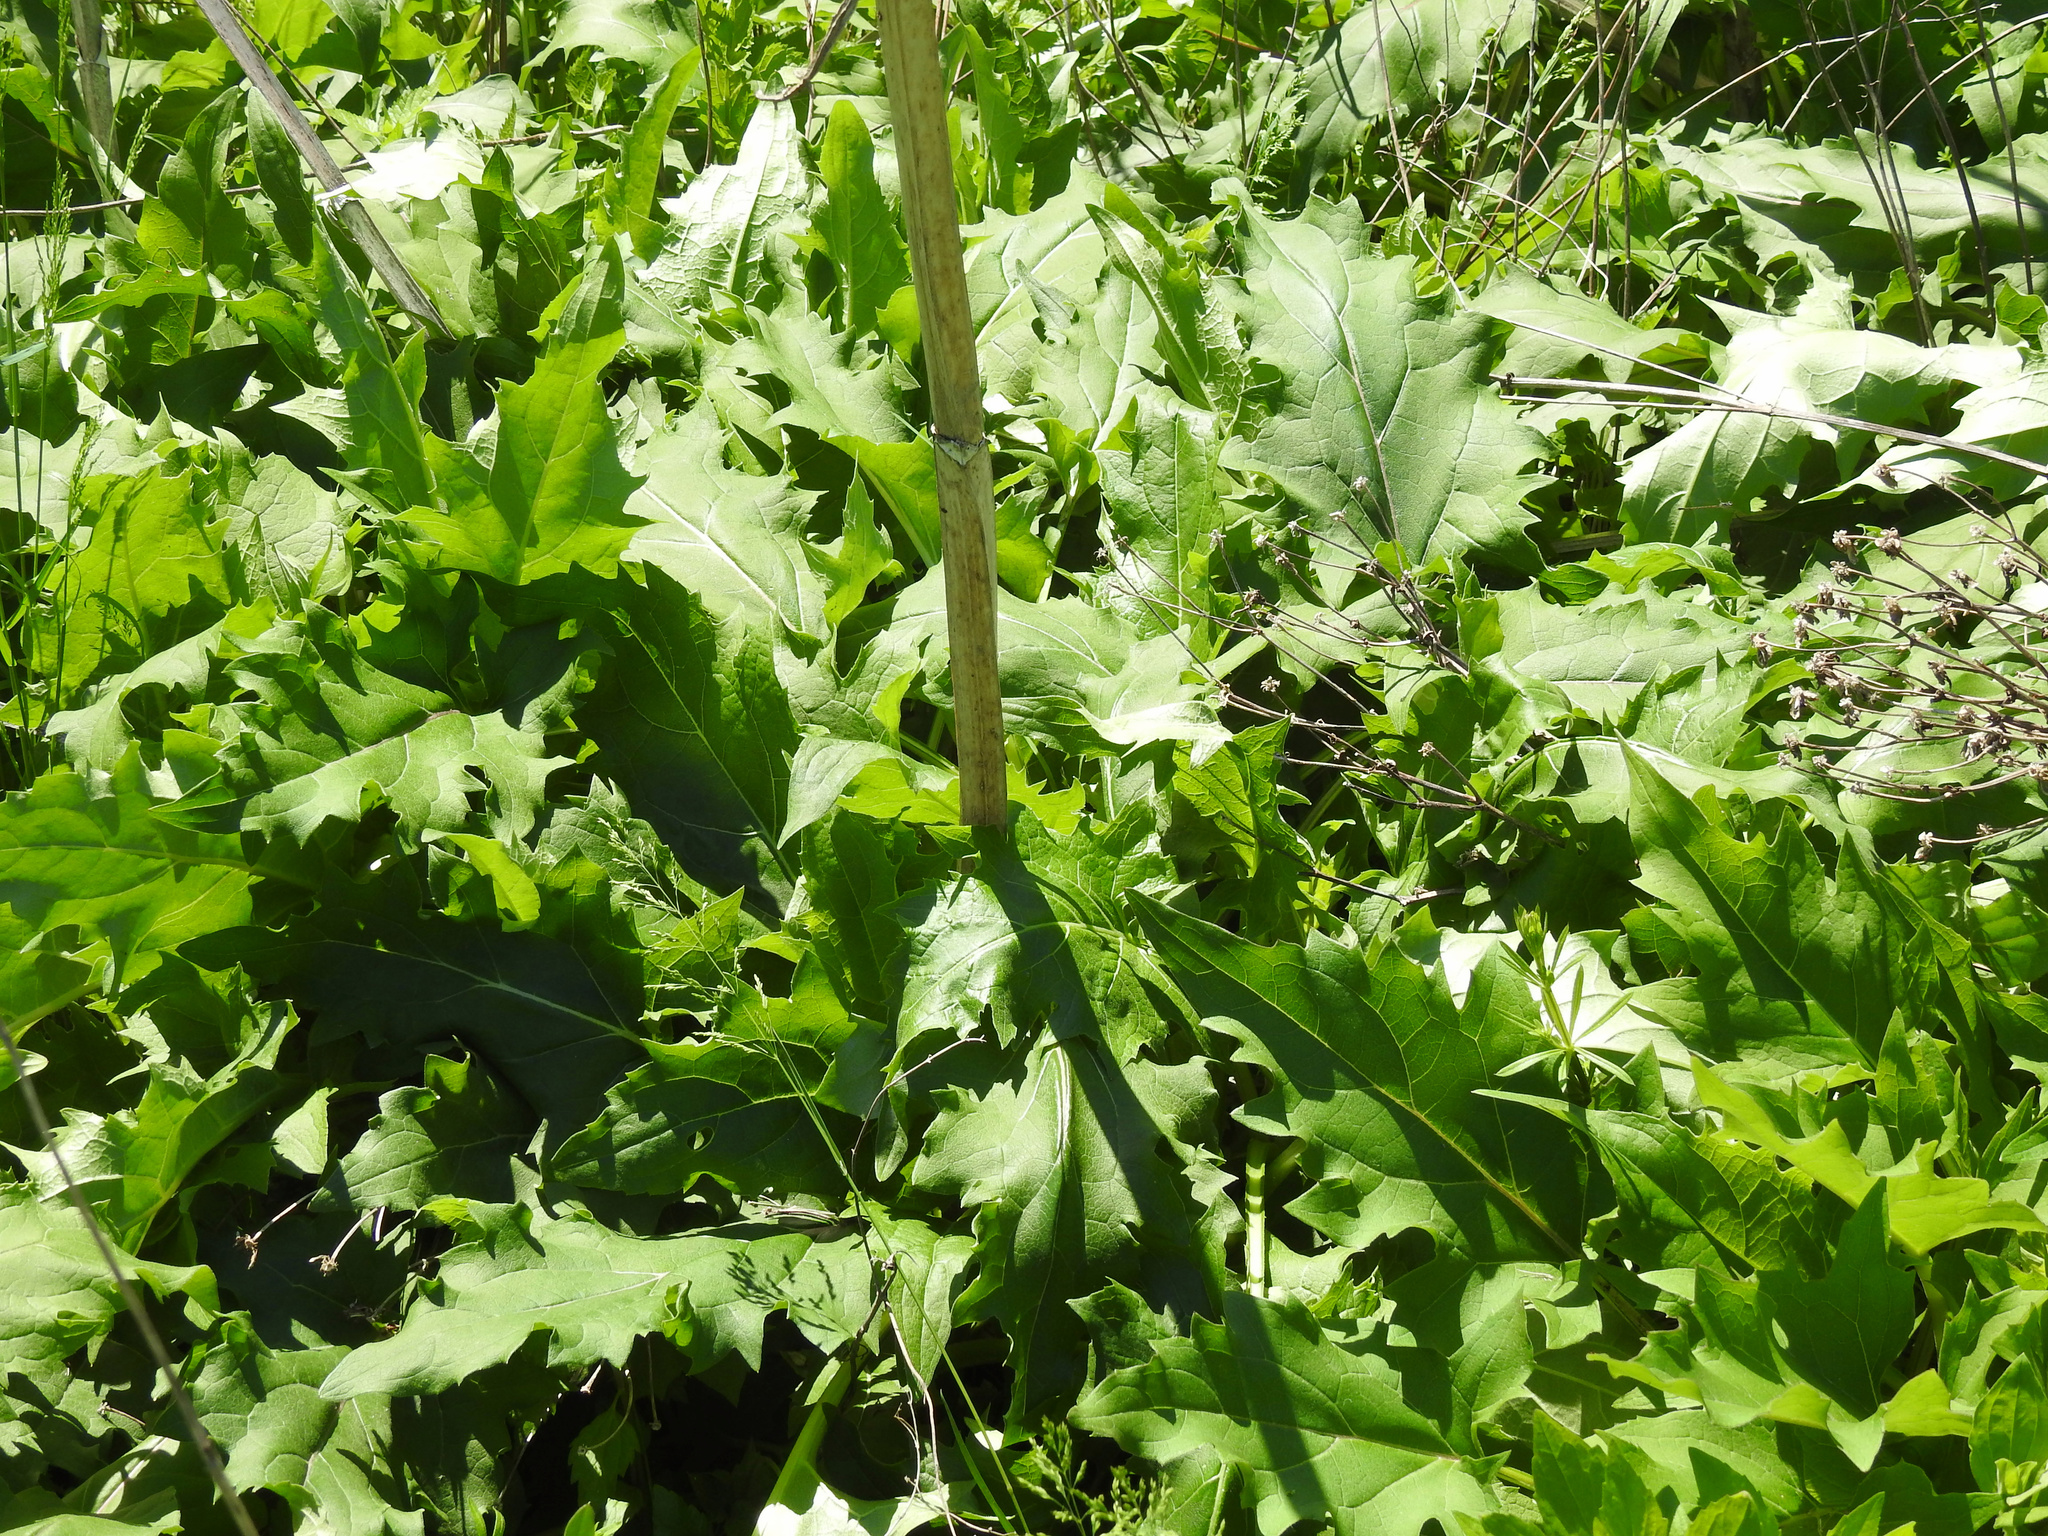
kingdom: Plantae
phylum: Tracheophyta
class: Magnoliopsida
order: Asterales
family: Asteraceae
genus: Silphium
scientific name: Silphium perfoliatum
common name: Cup-plant
